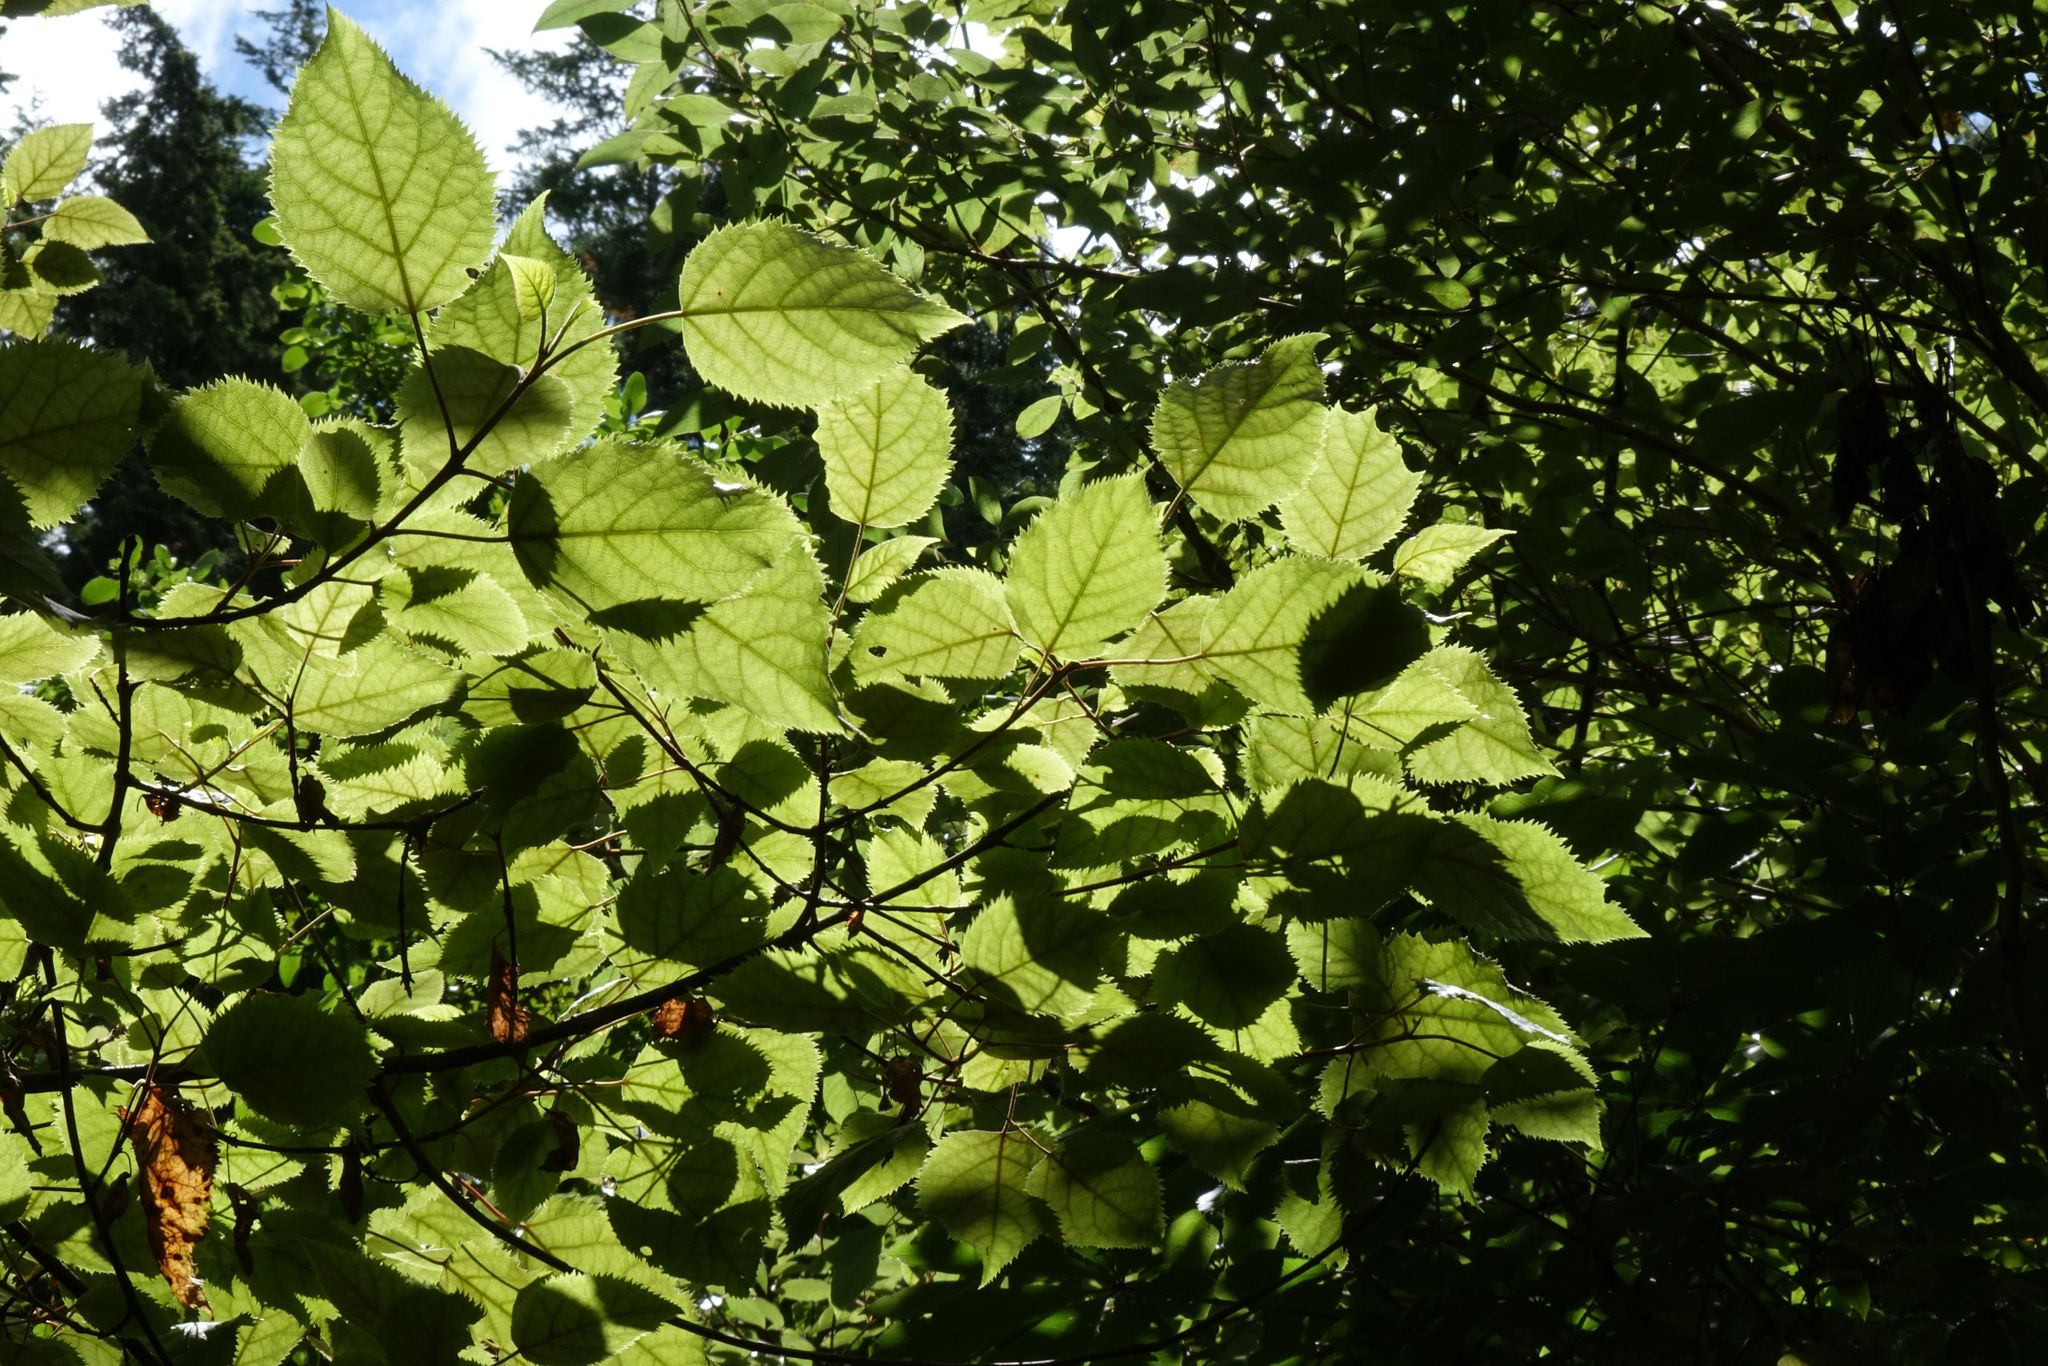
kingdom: Plantae
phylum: Tracheophyta
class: Magnoliopsida
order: Oxalidales
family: Elaeocarpaceae
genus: Aristotelia
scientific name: Aristotelia serrata
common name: New zealand wineberry
